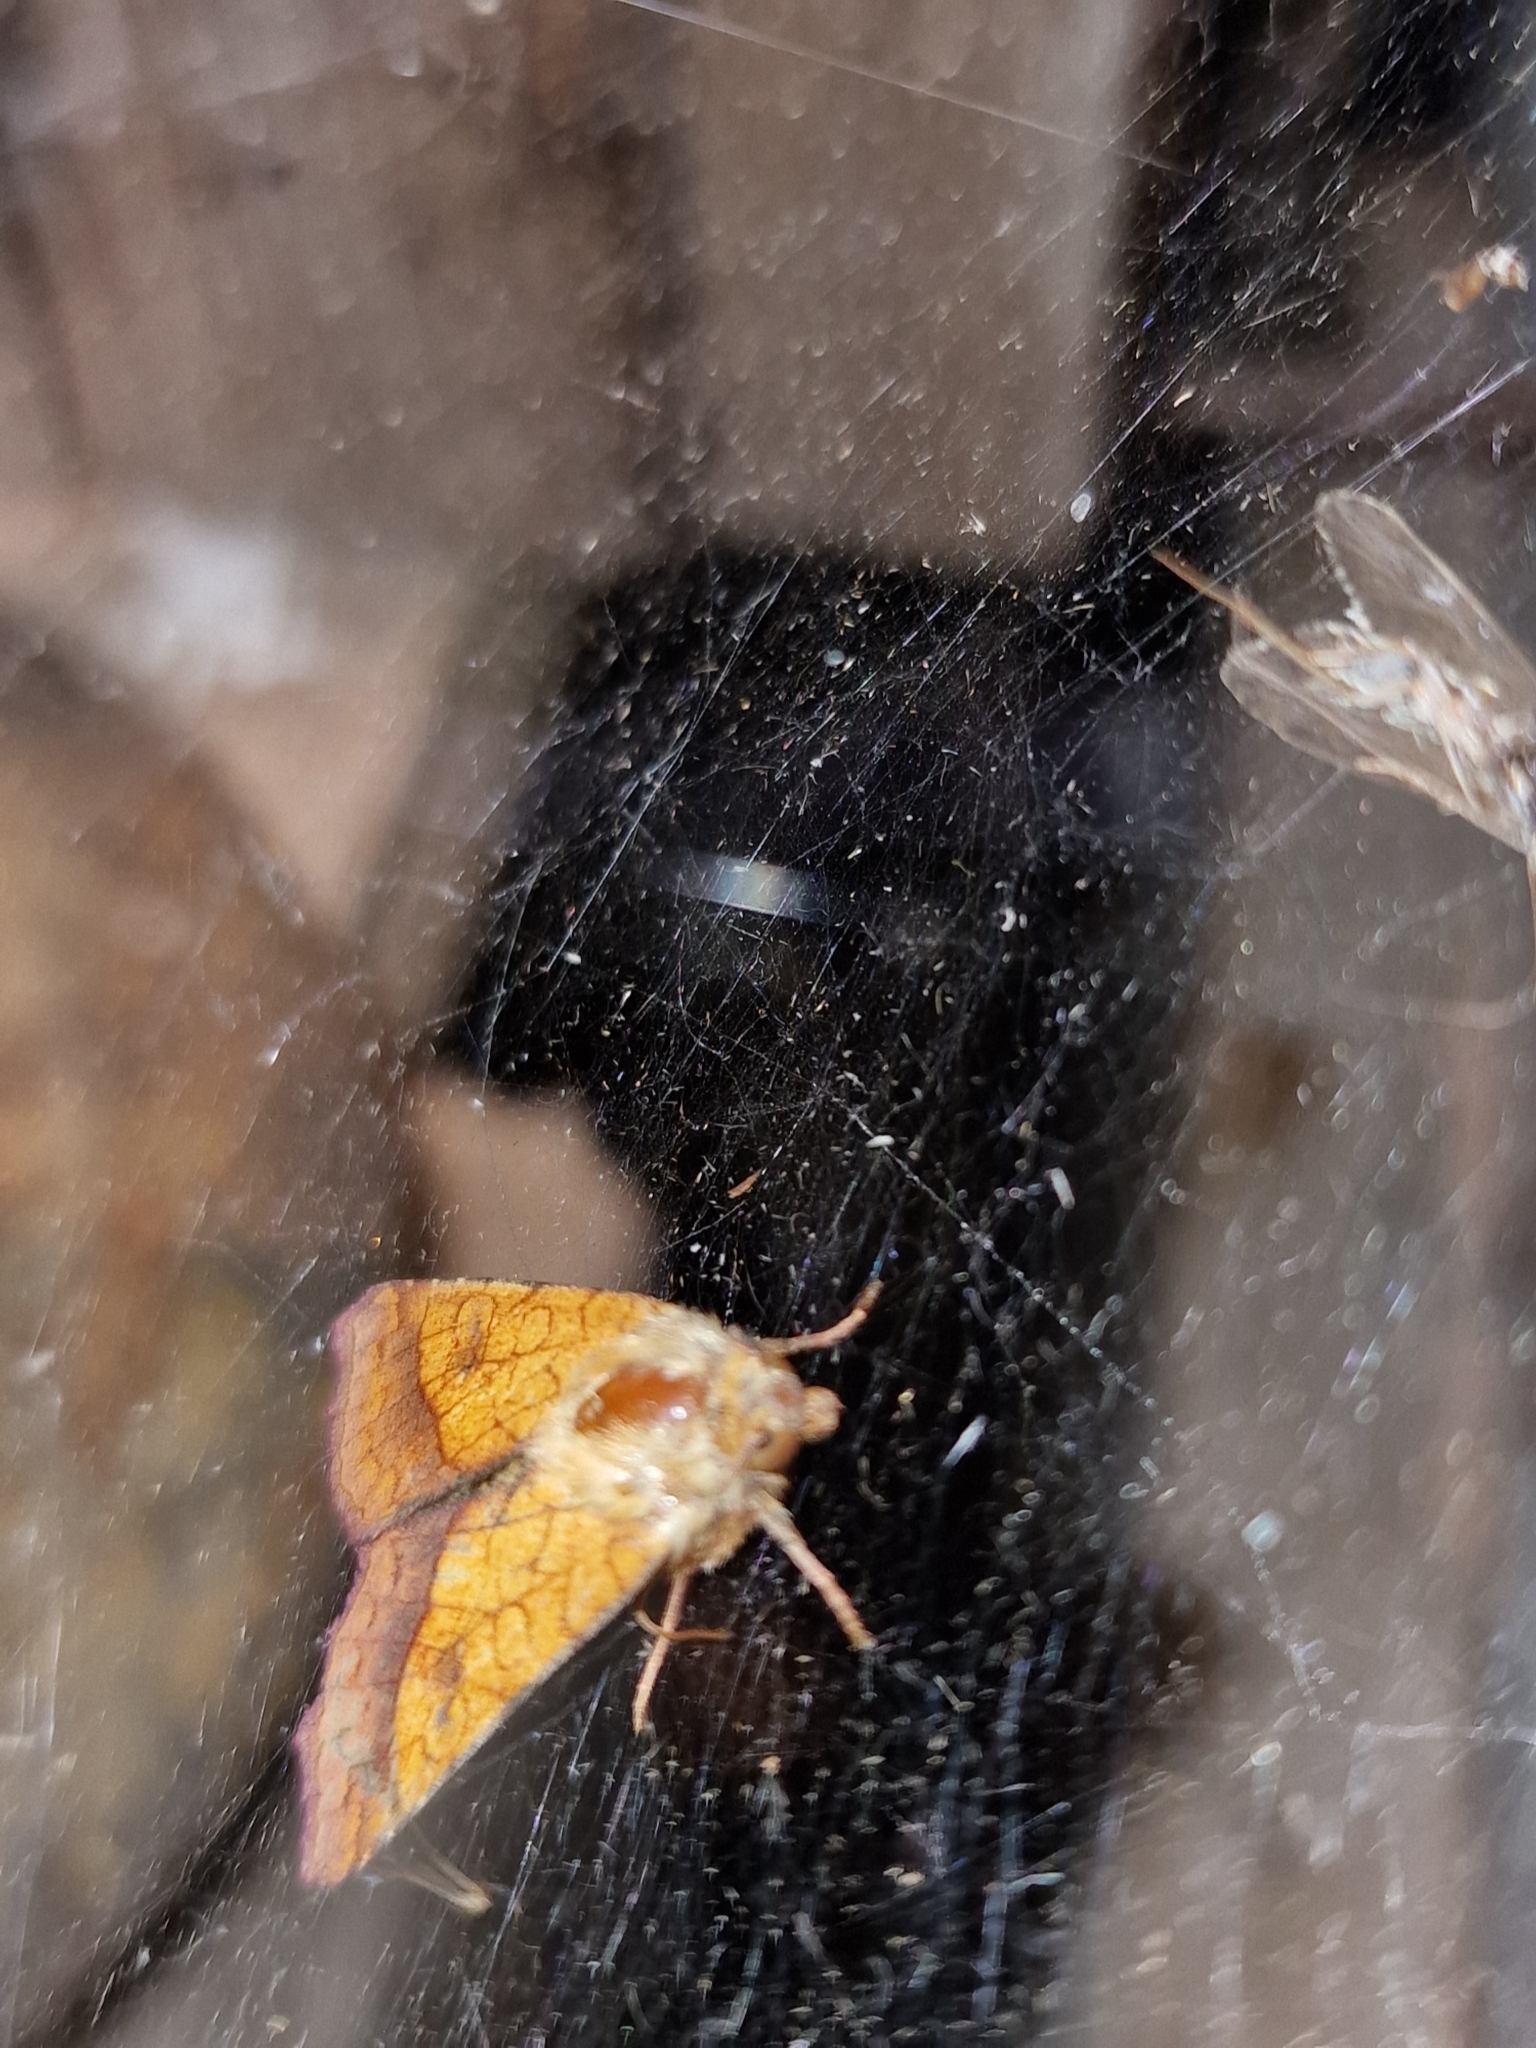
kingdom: Animalia
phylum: Arthropoda
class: Insecta
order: Lepidoptera
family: Noctuidae
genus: Pyrrhia
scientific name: Pyrrhia umbra
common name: Bordered sallow
